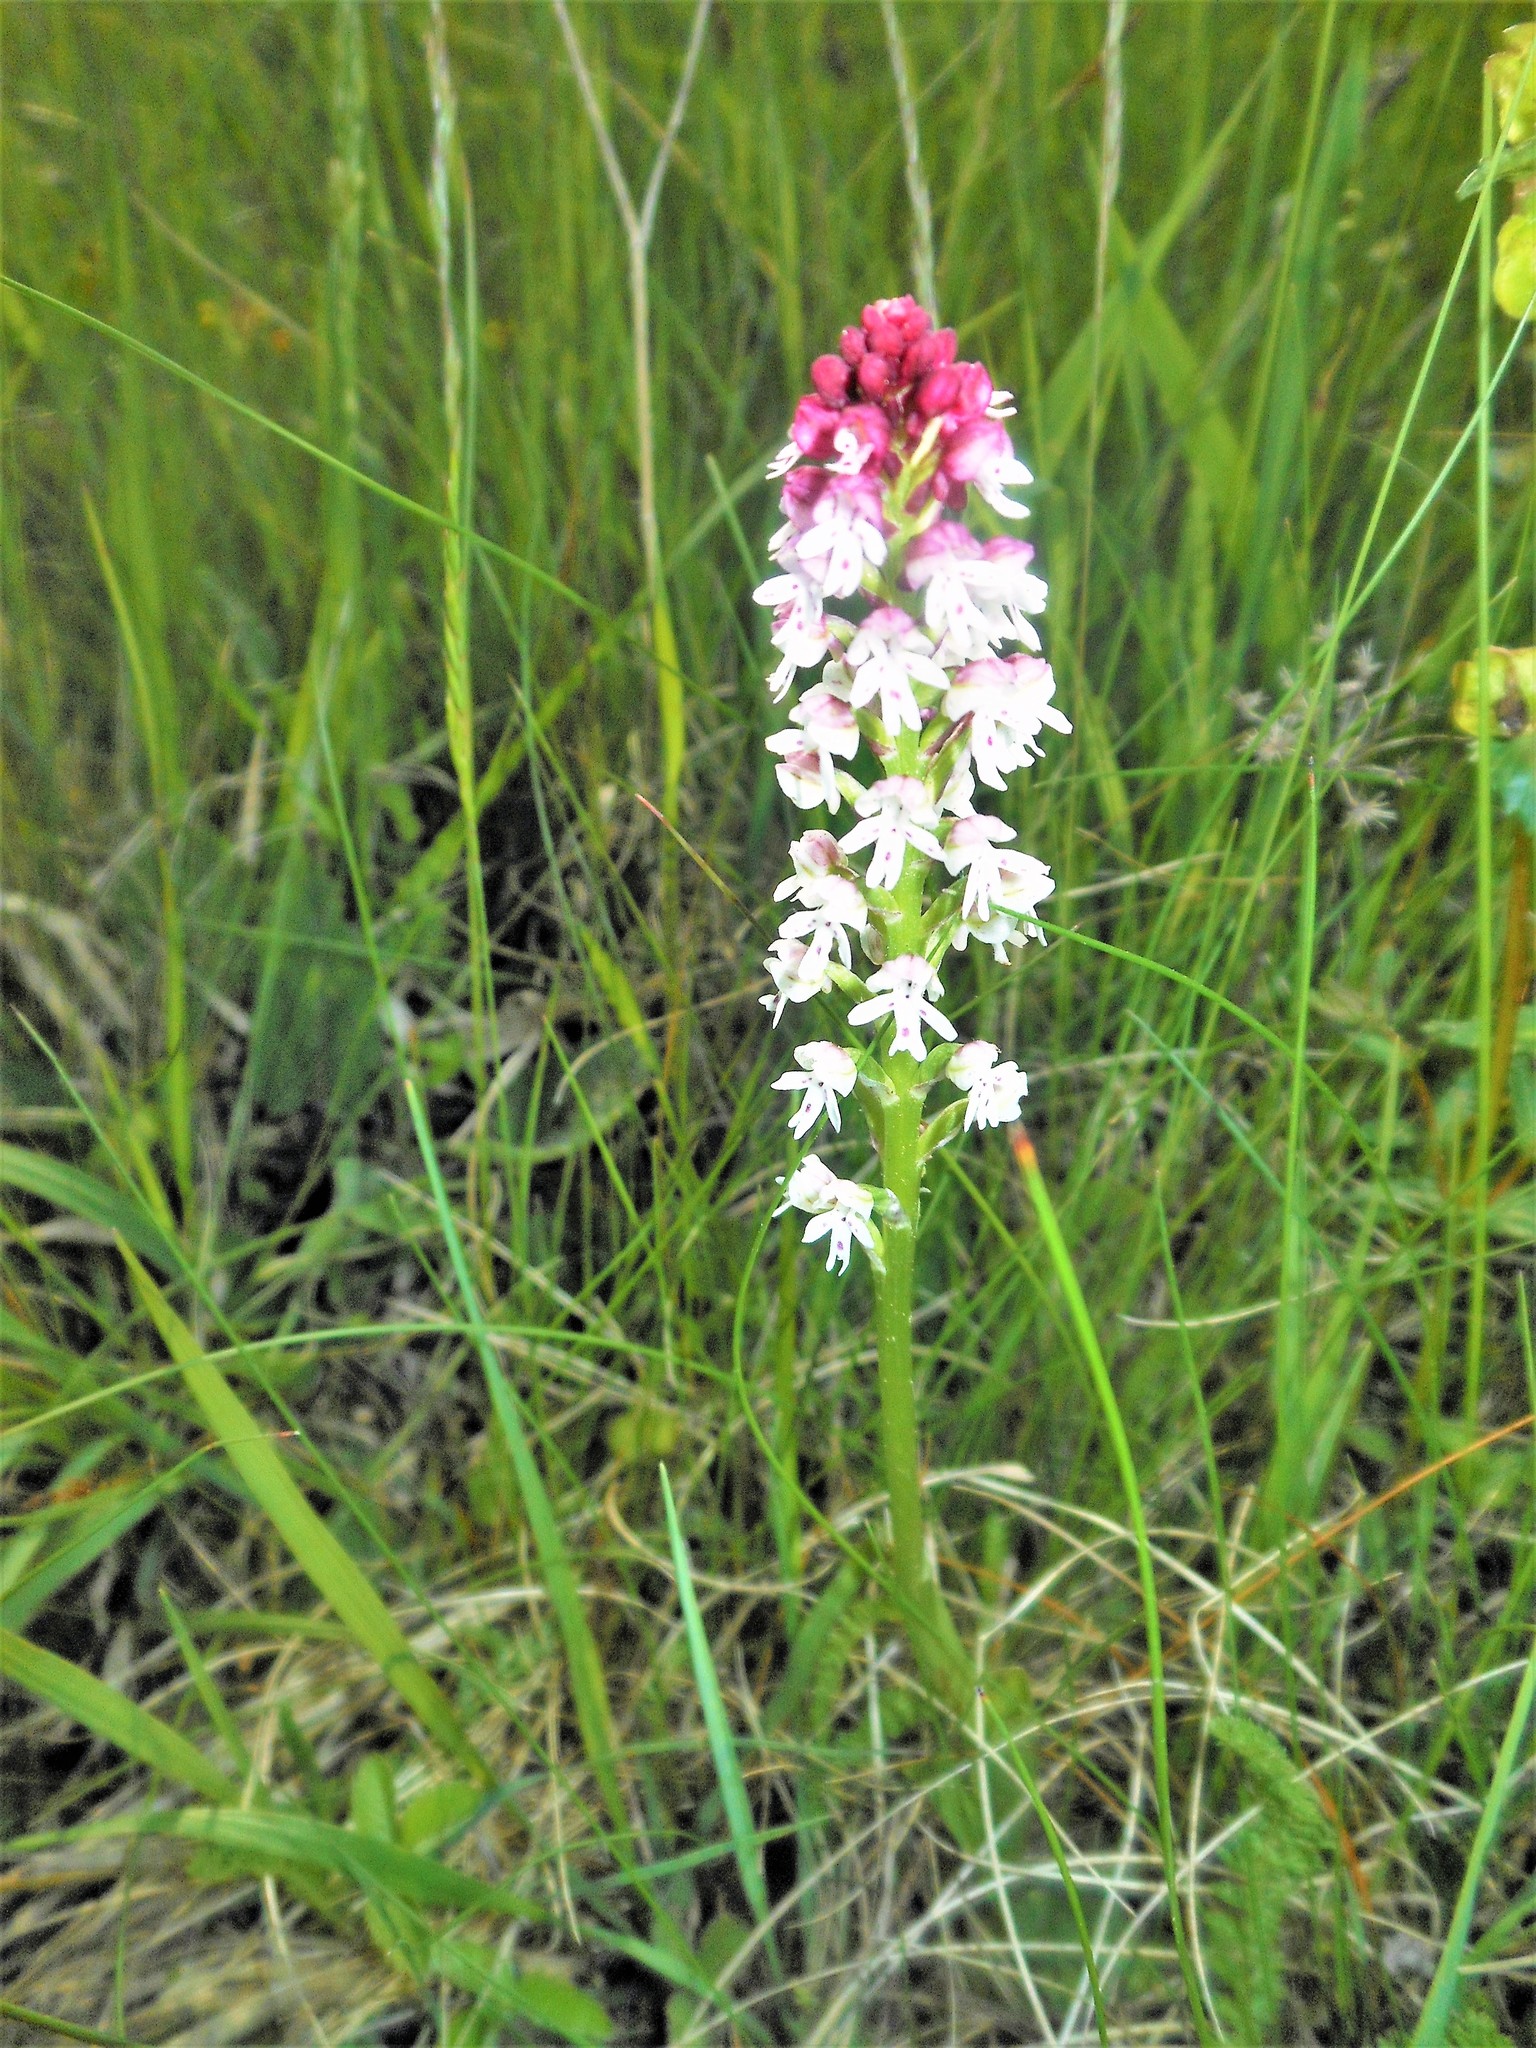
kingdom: Plantae
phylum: Tracheophyta
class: Liliopsida
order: Asparagales
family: Orchidaceae
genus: Neotinea
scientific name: Neotinea ustulata
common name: Burnt orchid
